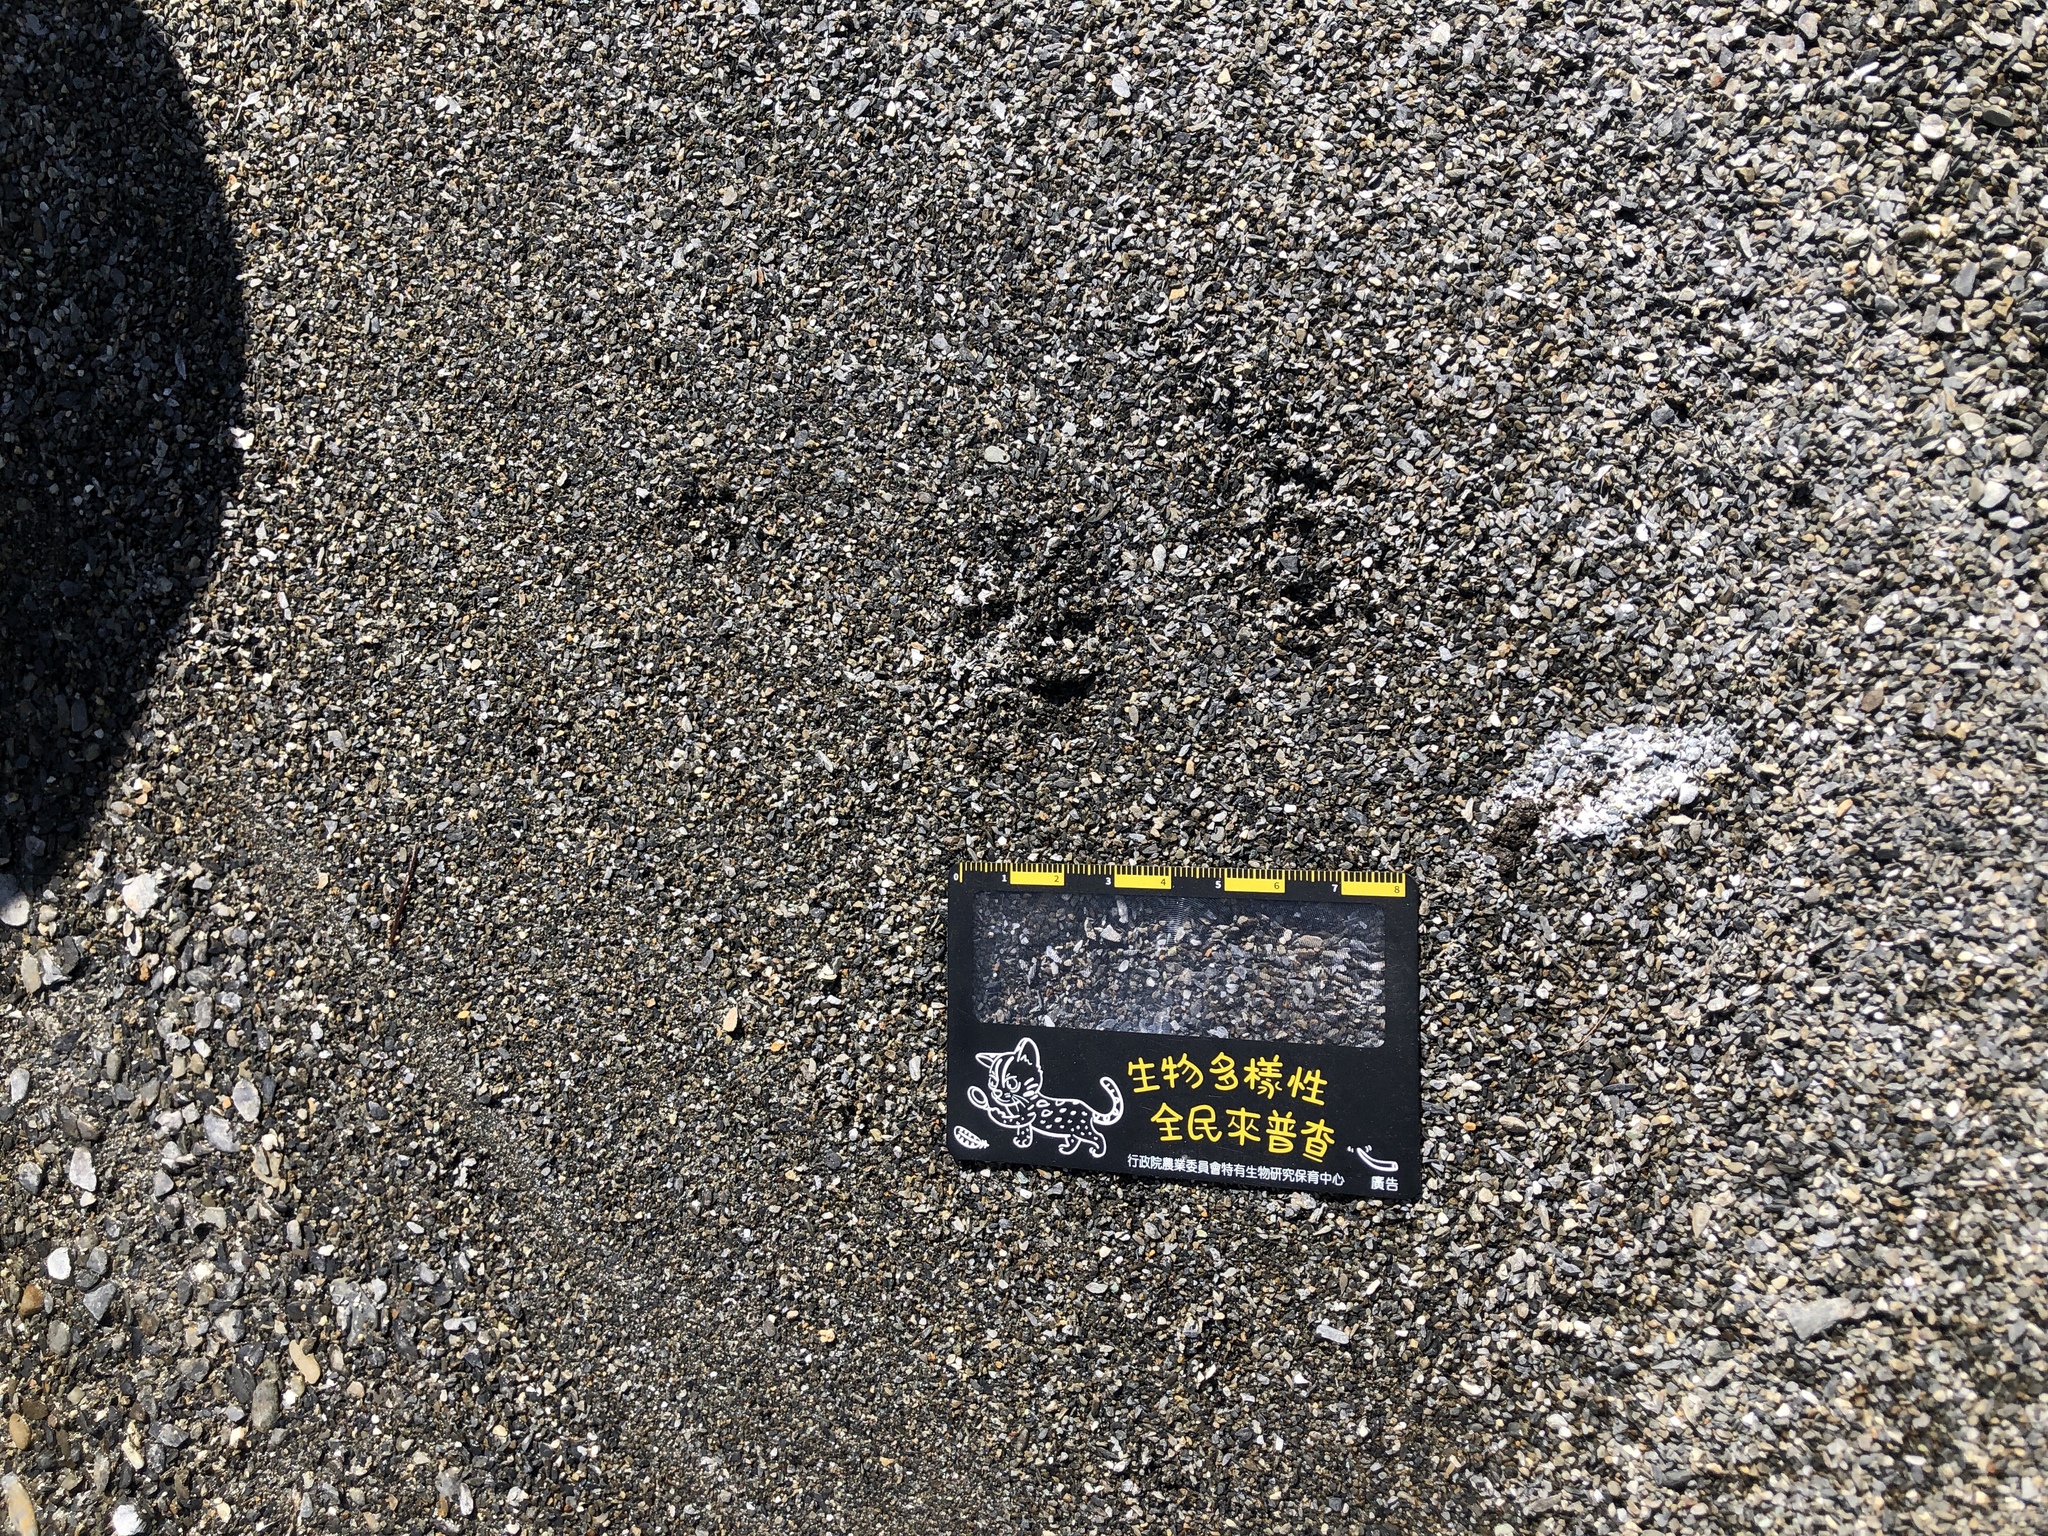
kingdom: Animalia
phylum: Chordata
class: Mammalia
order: Carnivora
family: Herpestidae
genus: Herpestes
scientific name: Herpestes urva
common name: Crab-eating mongoose
